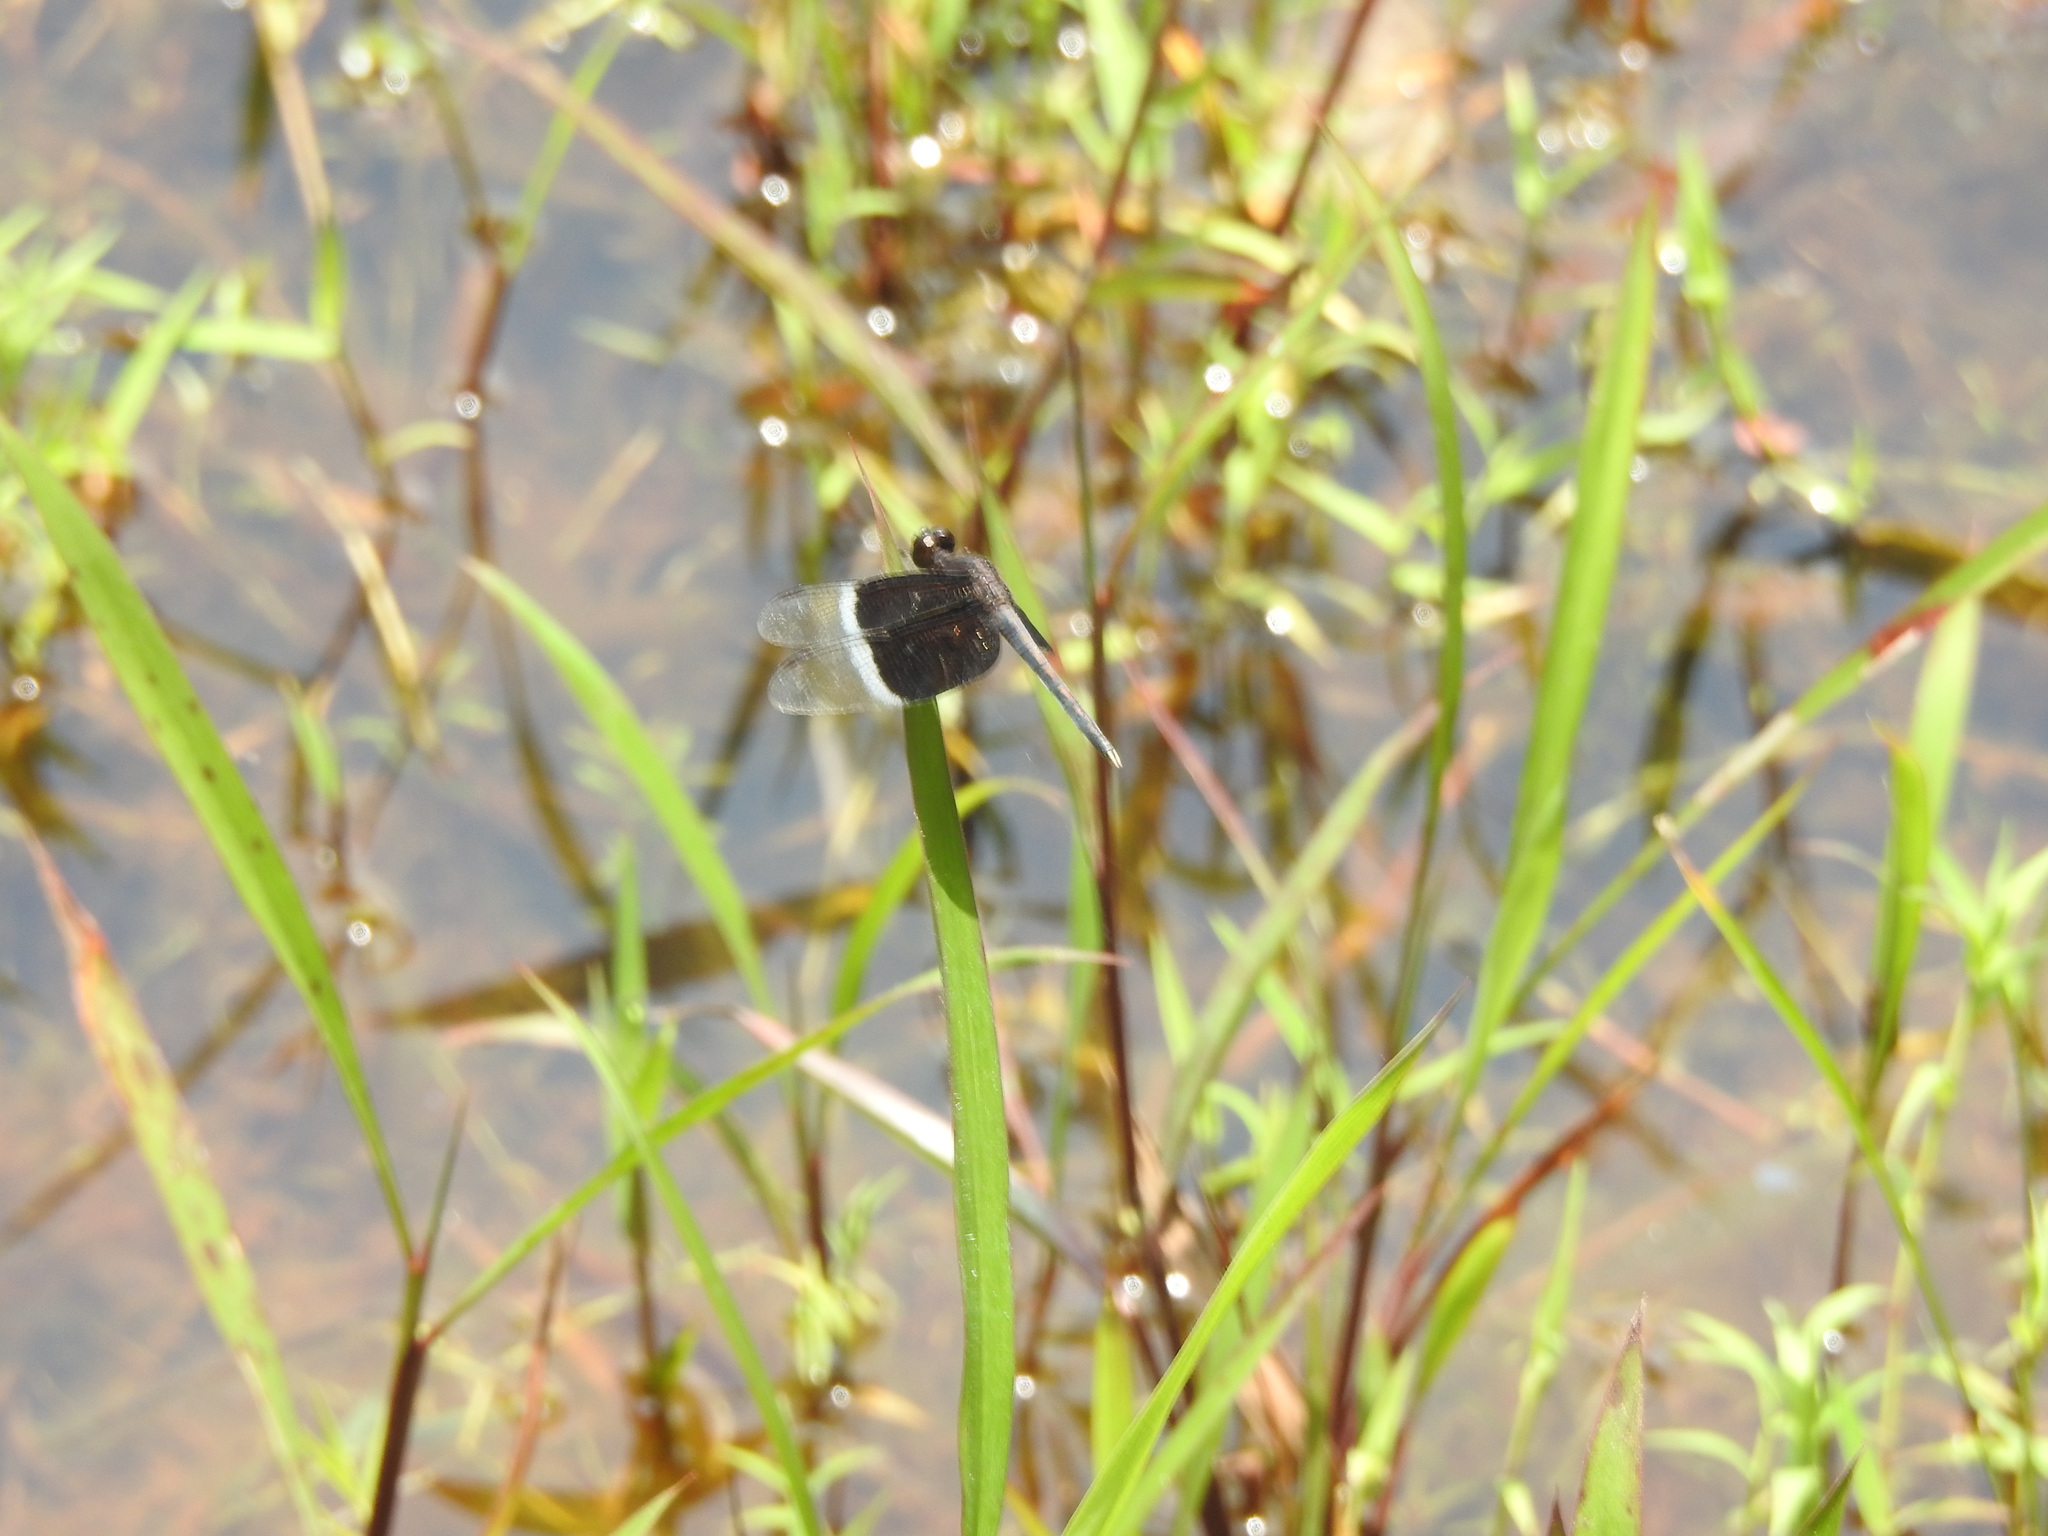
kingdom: Animalia
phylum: Arthropoda
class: Insecta
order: Odonata
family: Libellulidae
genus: Neurothemis
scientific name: Neurothemis tullia
